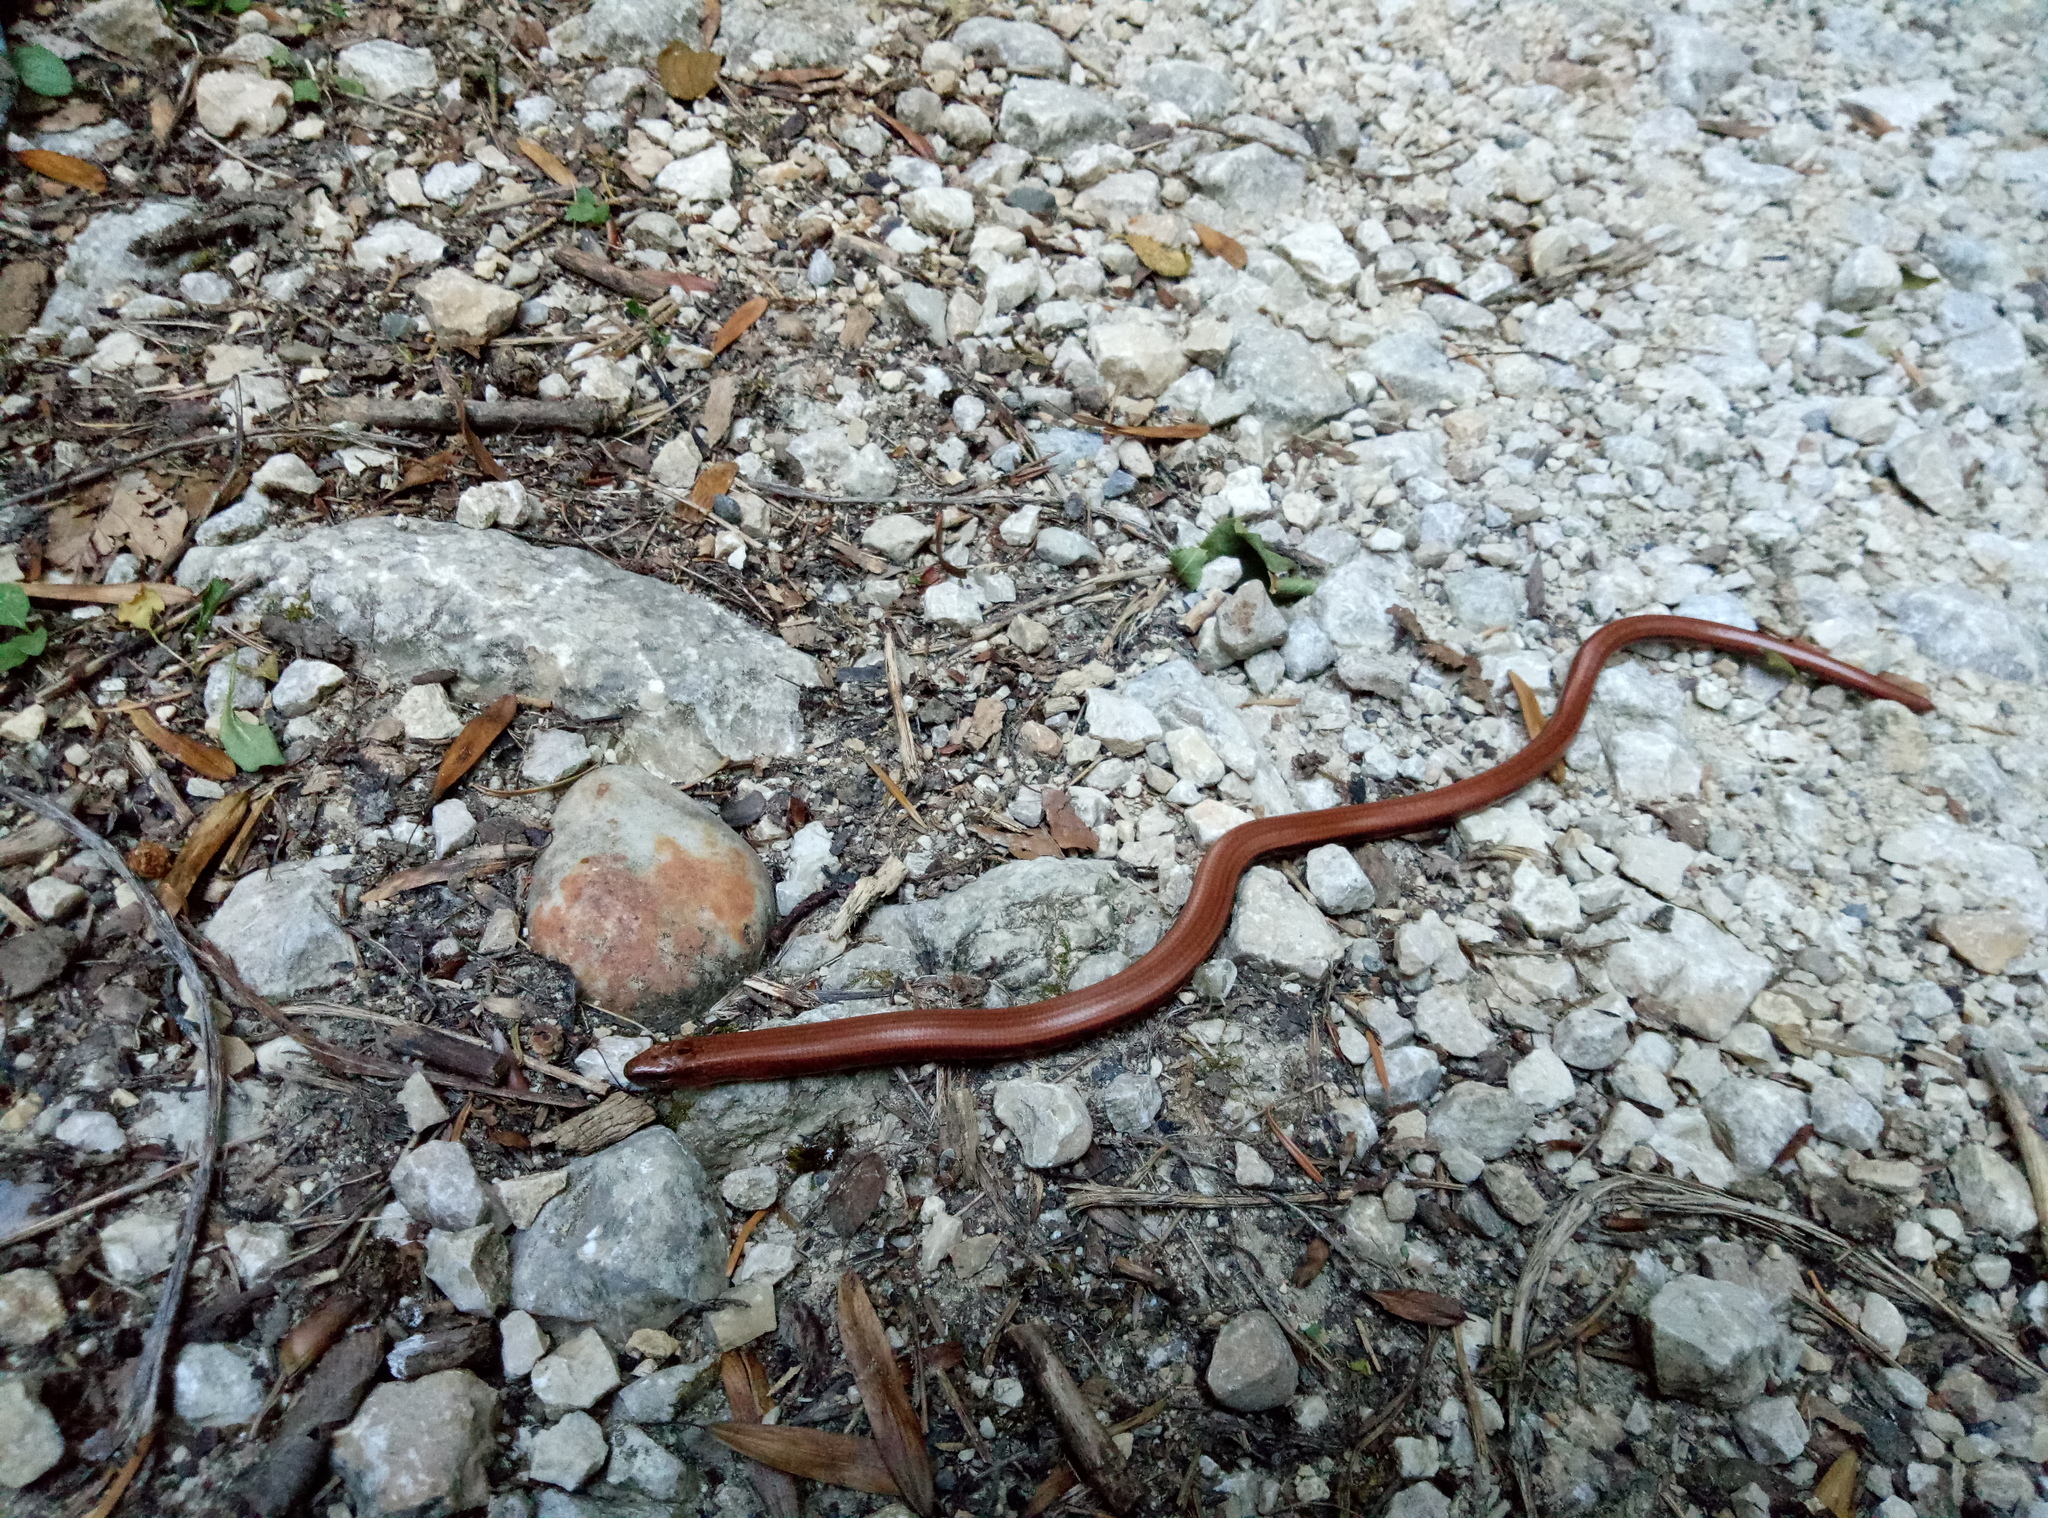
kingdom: Animalia
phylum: Chordata
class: Squamata
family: Anguidae
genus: Anguis
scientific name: Anguis fragilis
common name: Slow worm
